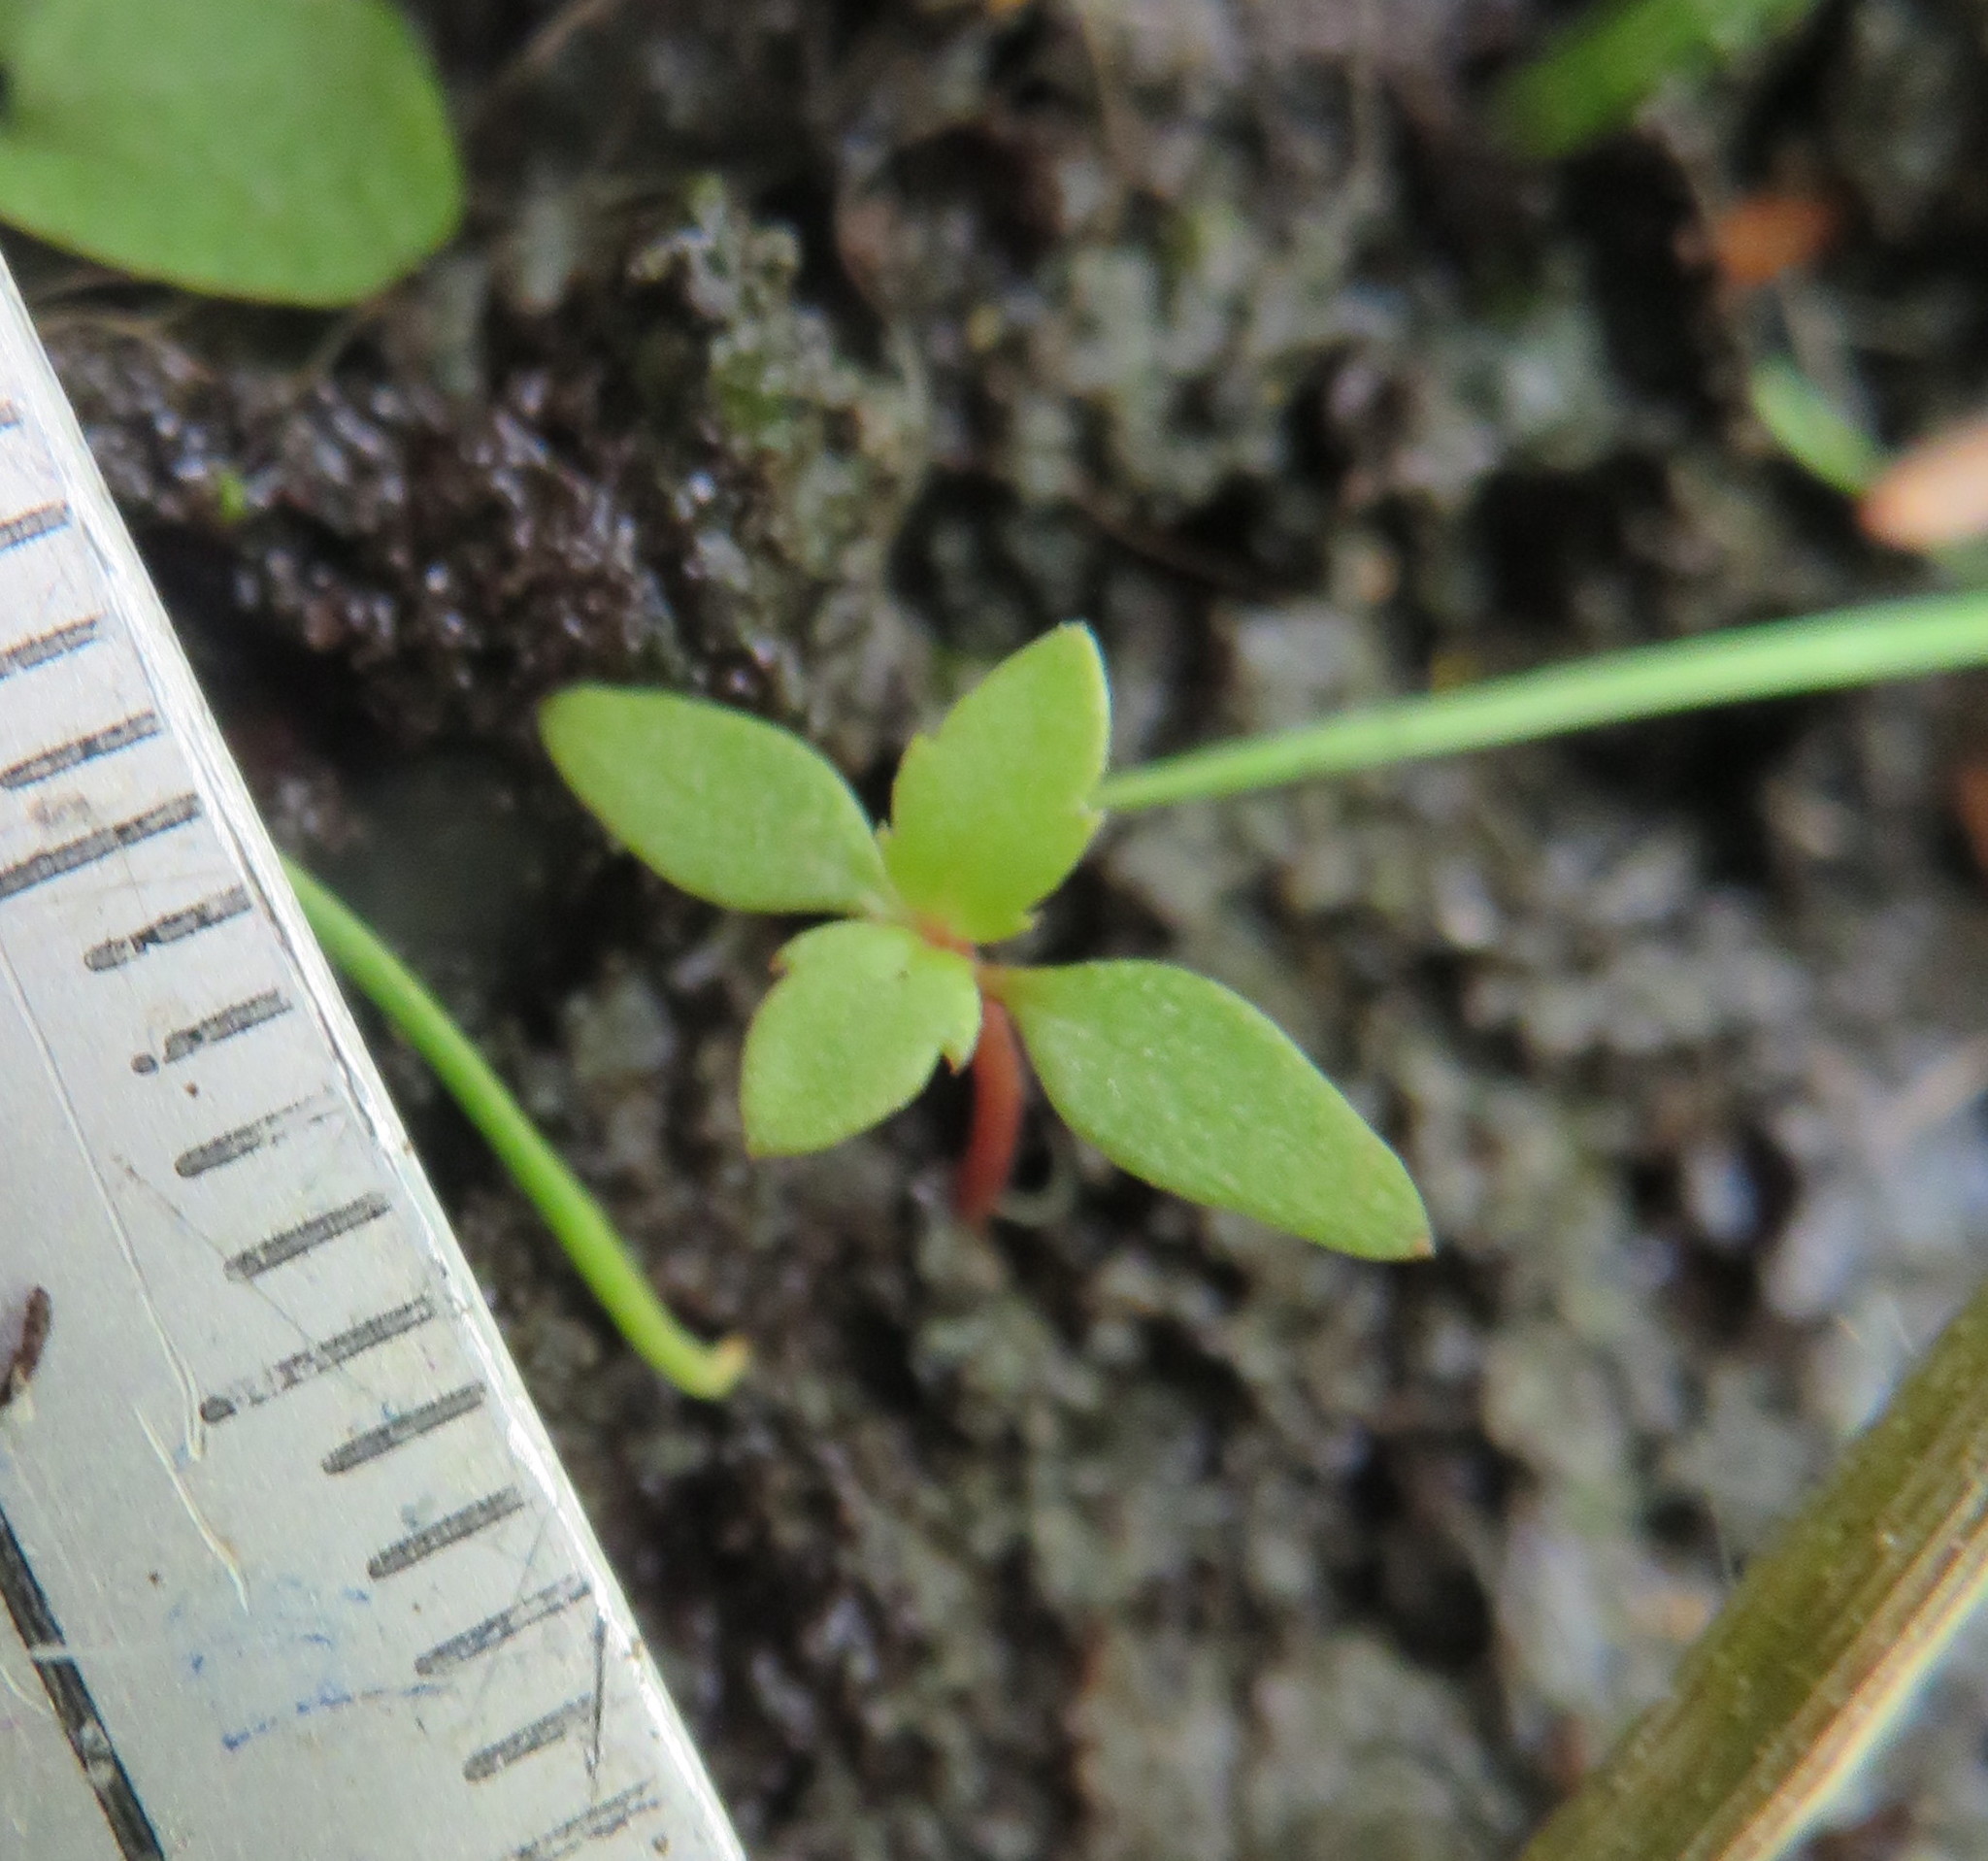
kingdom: Plantae
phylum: Tracheophyta
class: Magnoliopsida
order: Saxifragales
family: Haloragaceae
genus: Haloragis
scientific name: Haloragis erecta
